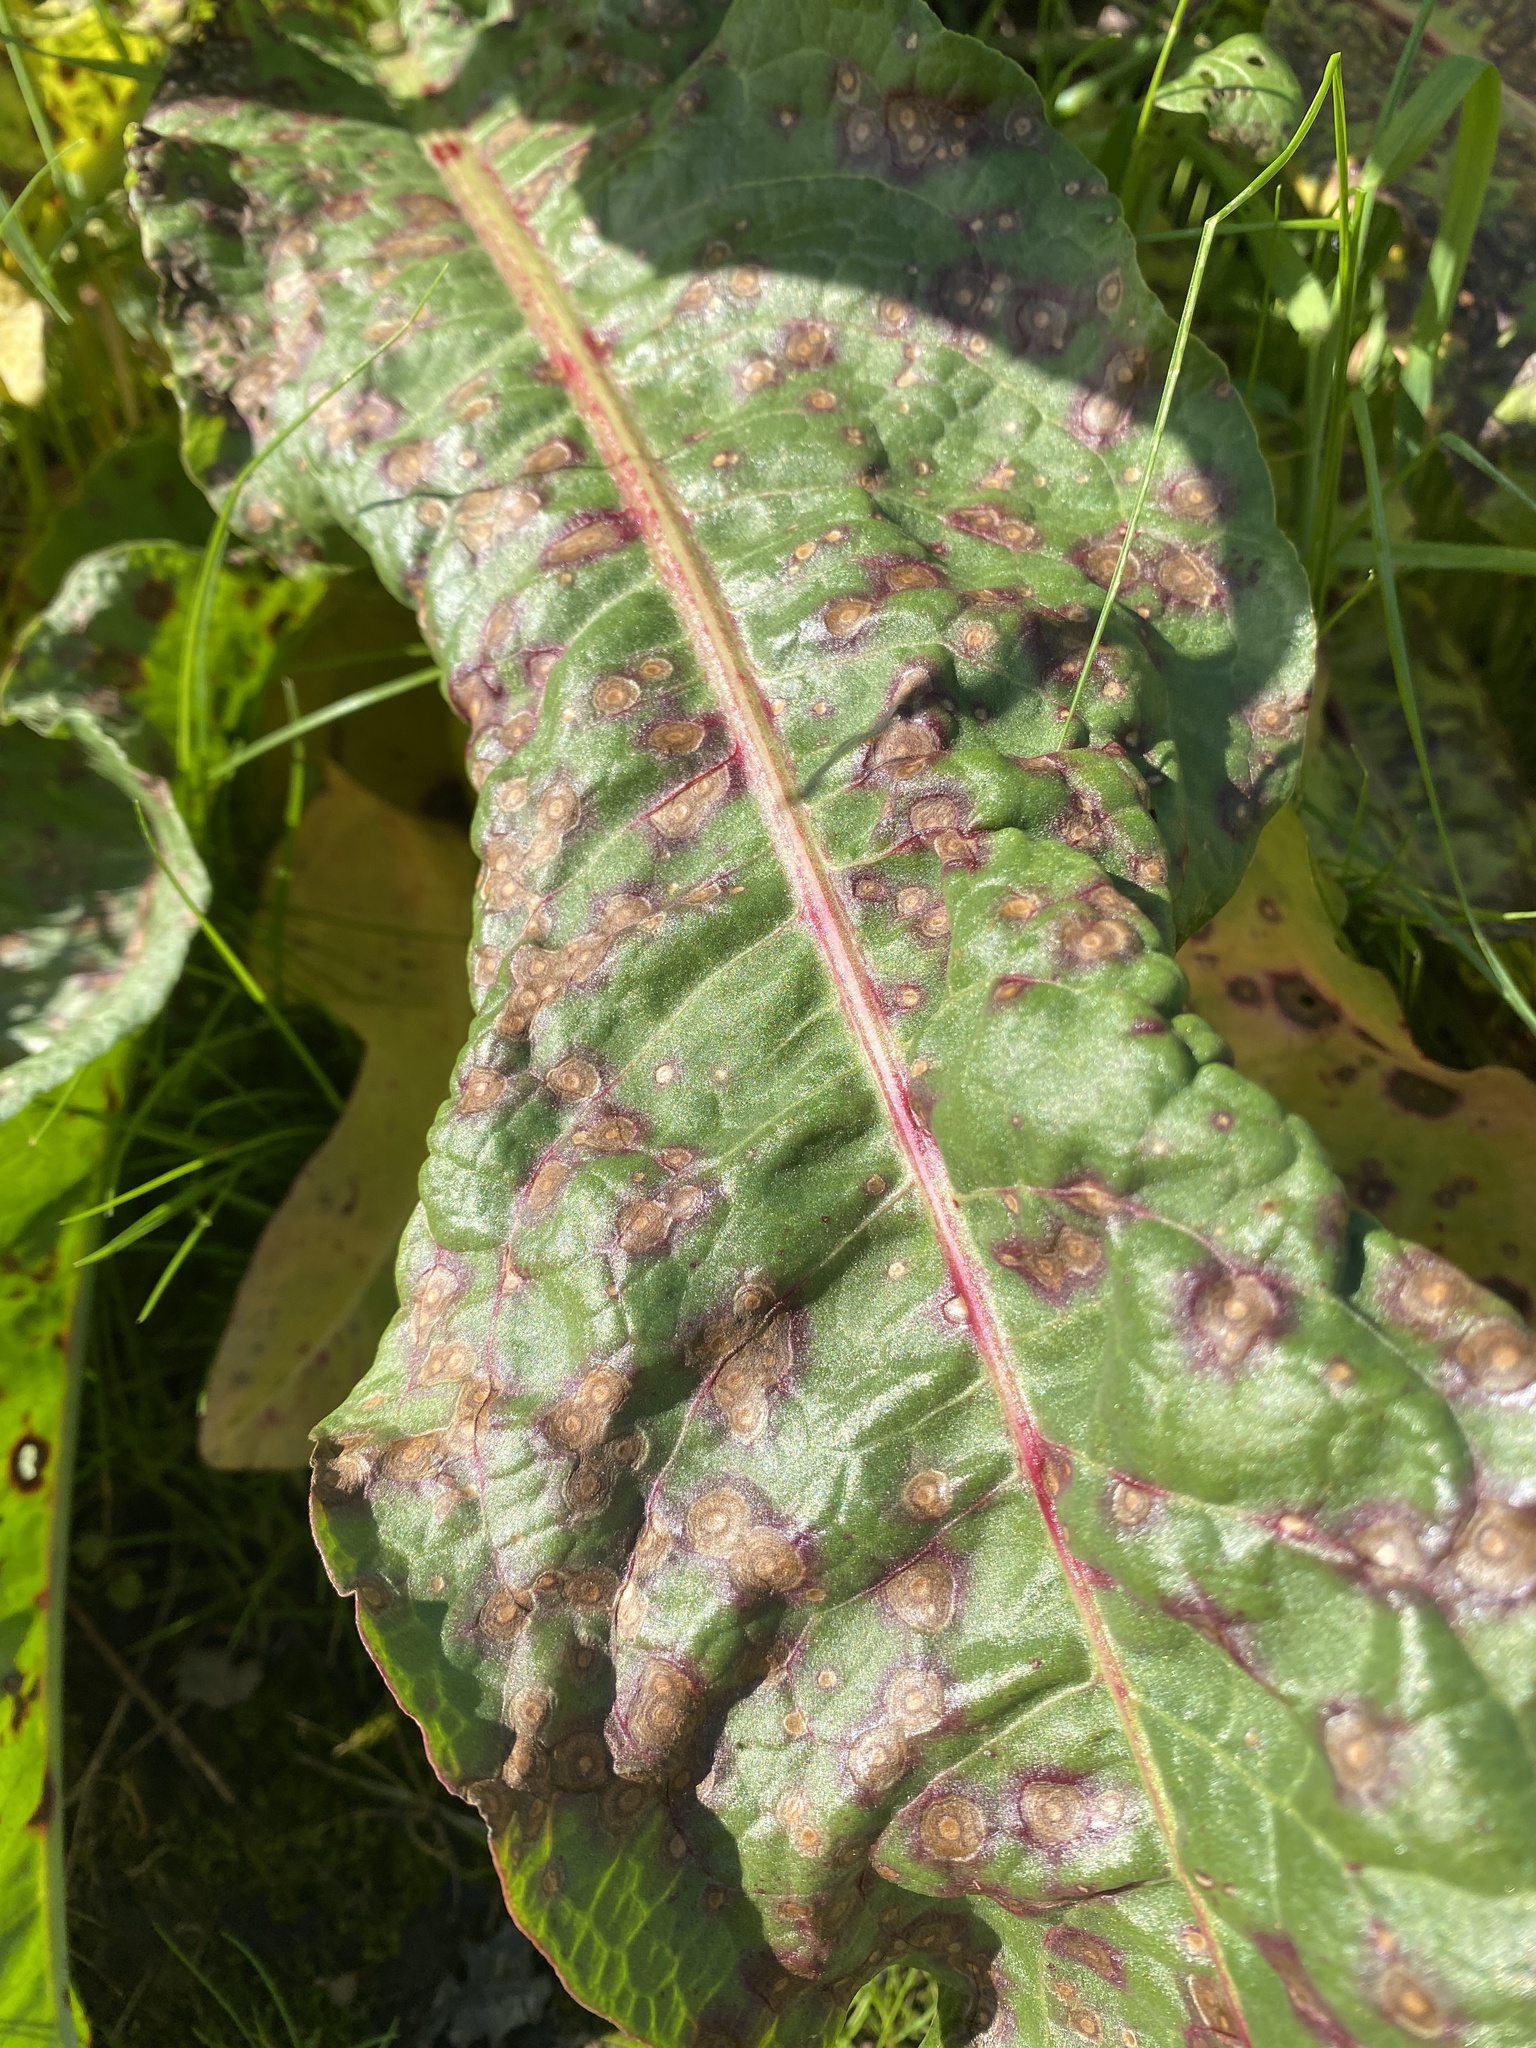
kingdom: Fungi
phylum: Ascomycota
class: Dothideomycetes
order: Mycosphaerellales
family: Mycosphaerellaceae
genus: Ramularia
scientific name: Ramularia rubella
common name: Red dock spot
